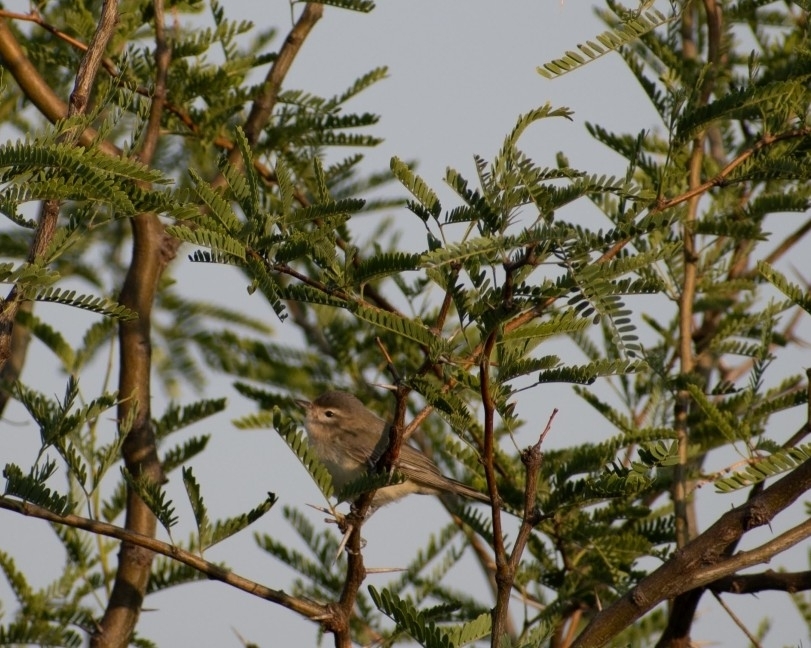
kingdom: Animalia
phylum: Chordata
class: Aves
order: Passeriformes
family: Vireonidae
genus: Vireo
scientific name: Vireo gilvus
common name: Warbling vireo
